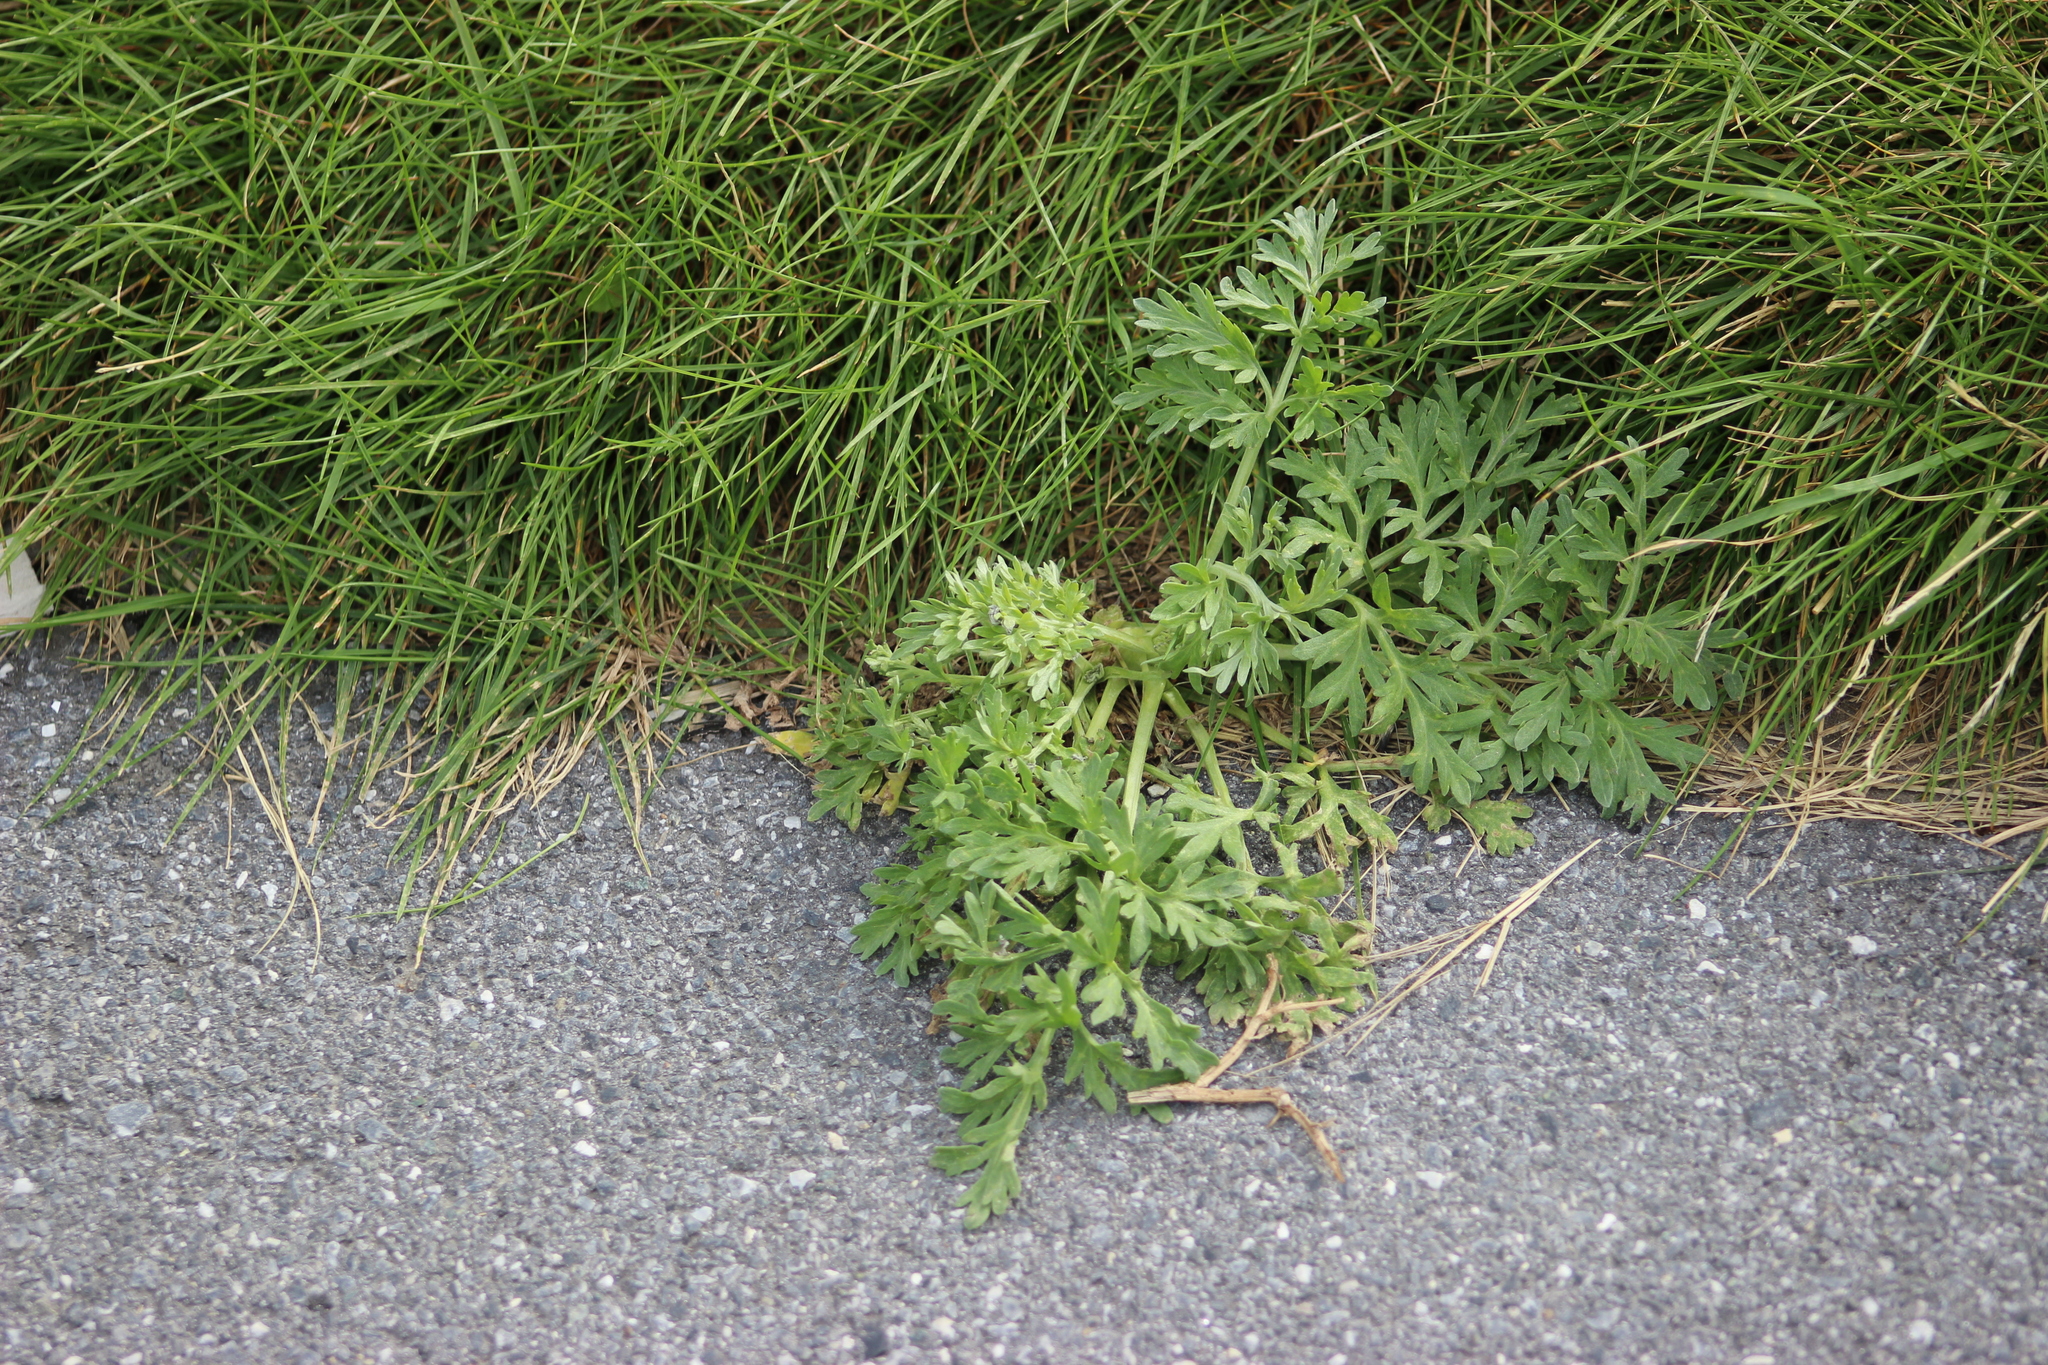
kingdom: Plantae
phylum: Tracheophyta
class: Magnoliopsida
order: Asterales
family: Asteraceae
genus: Artemisia
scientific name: Artemisia absinthium
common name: Wormwood
